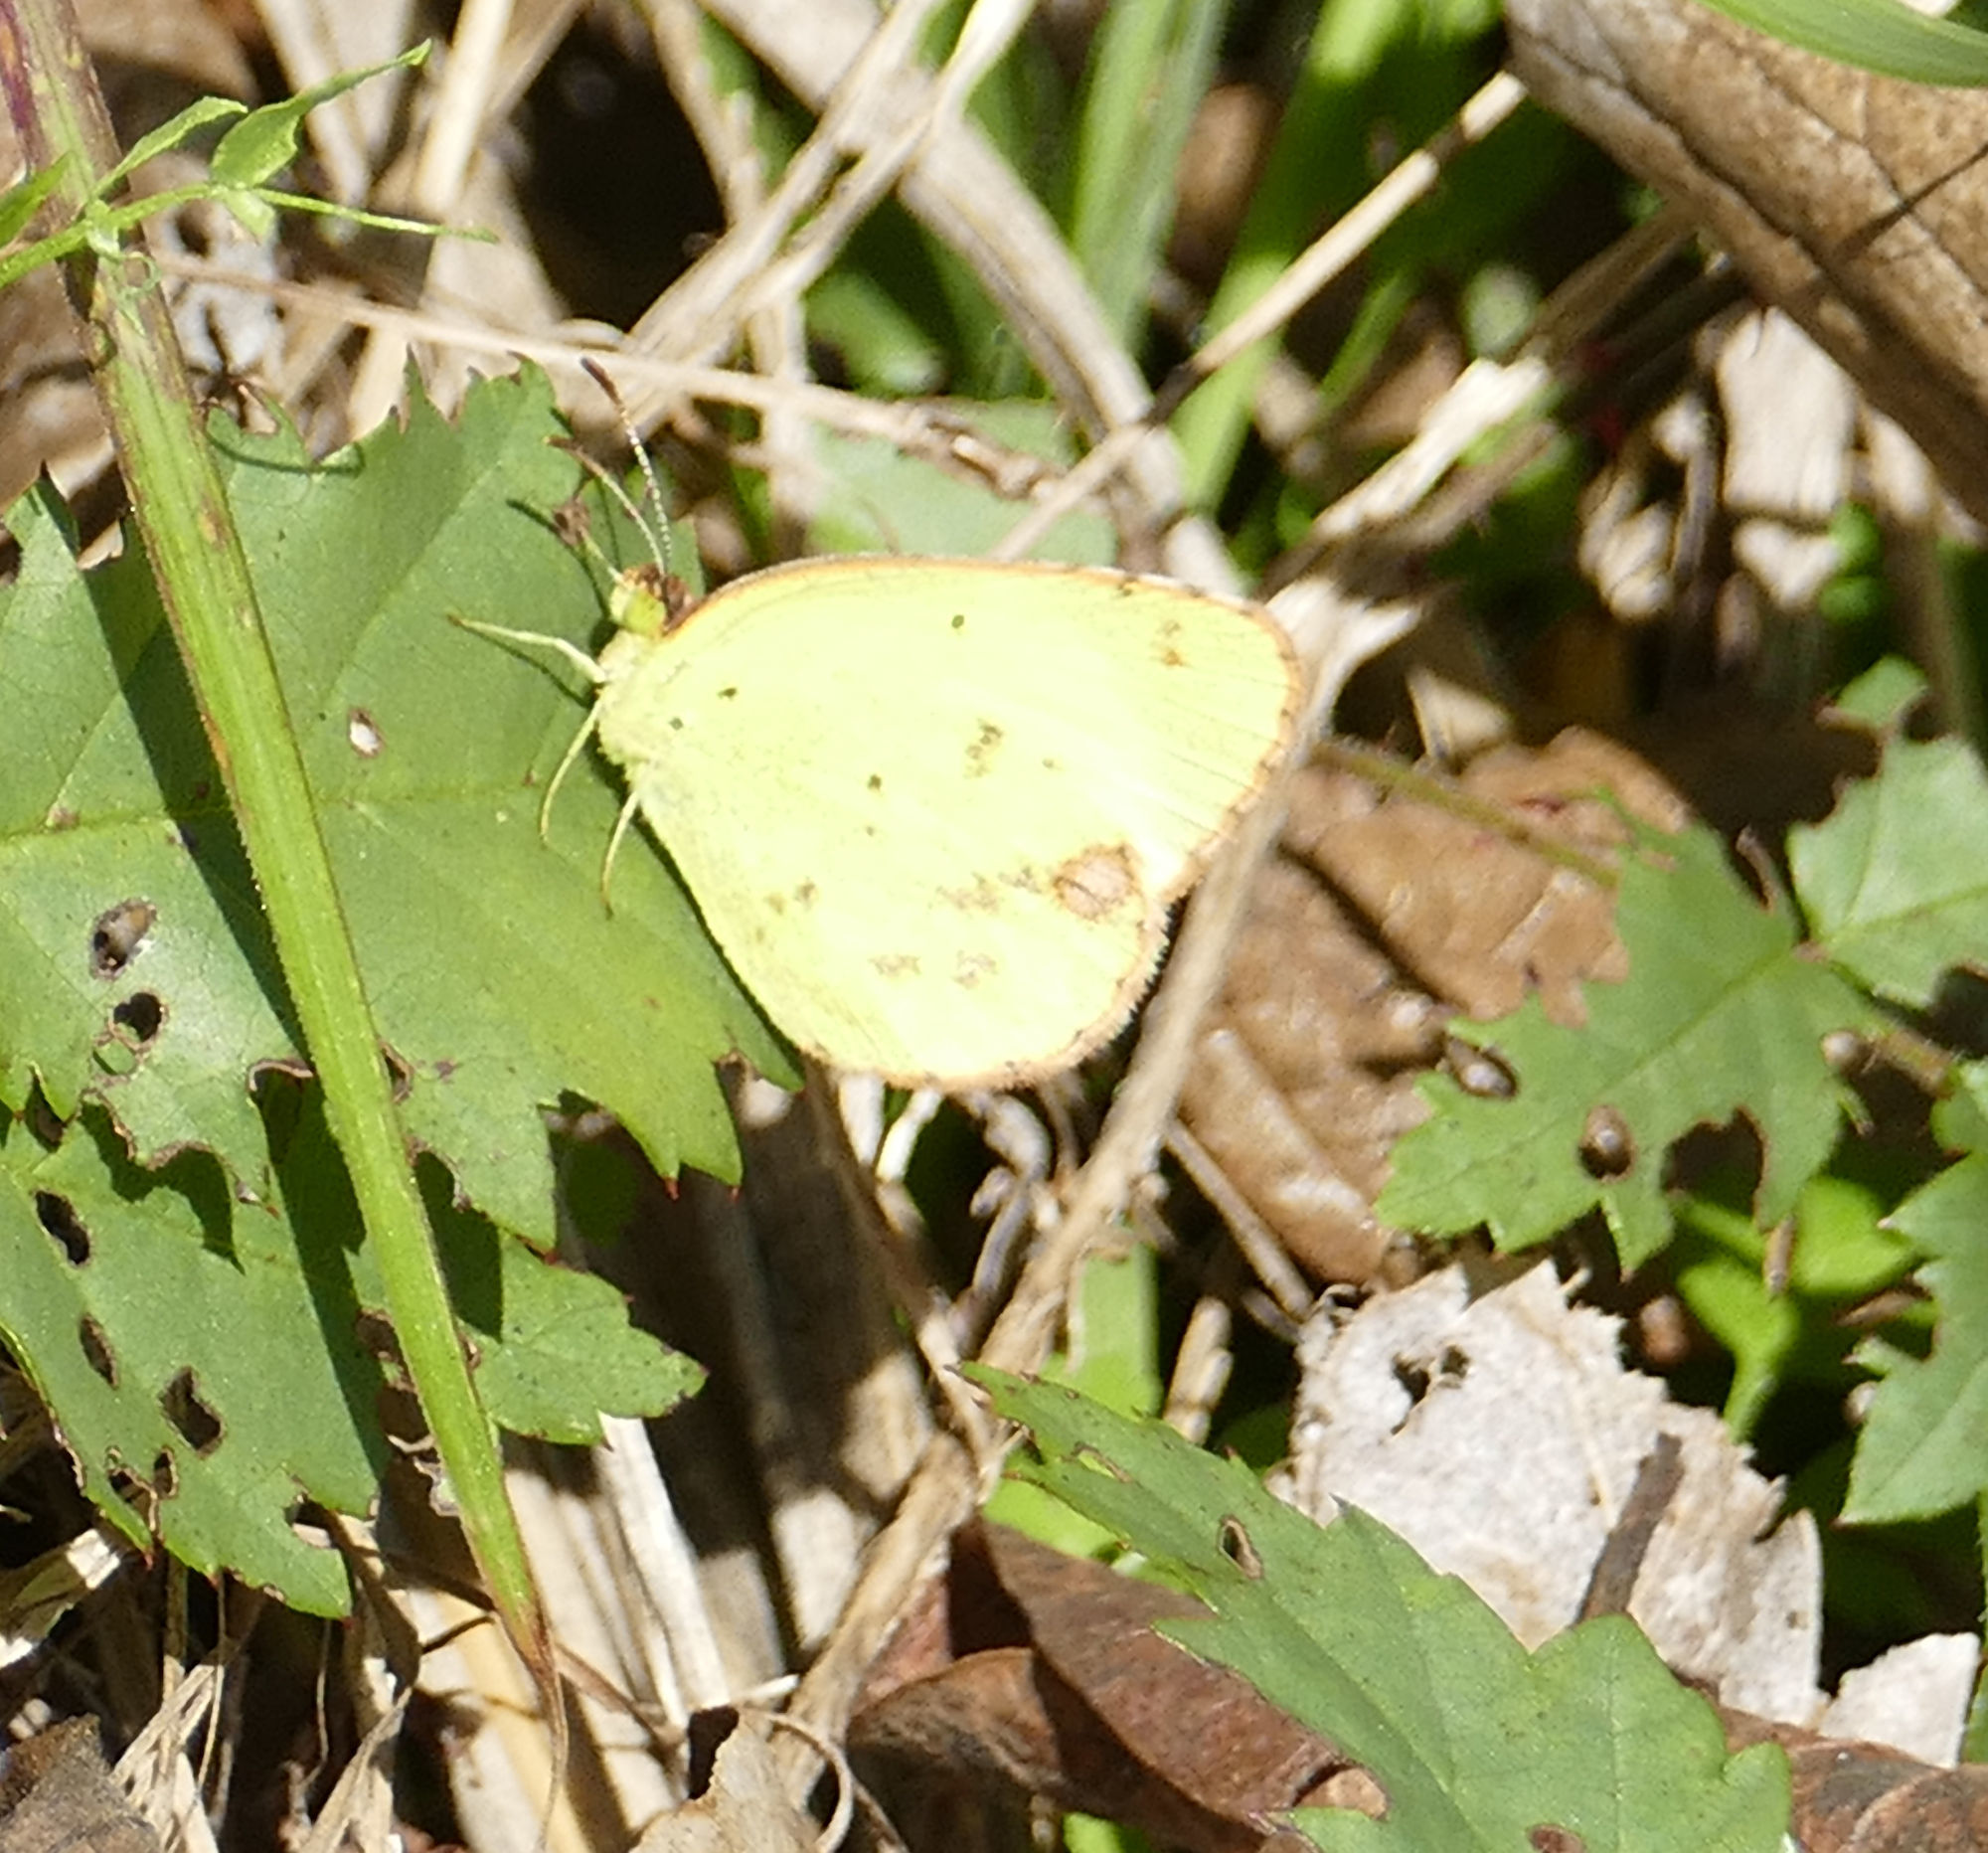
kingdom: Animalia
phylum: Arthropoda
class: Insecta
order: Lepidoptera
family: Pieridae
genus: Pyrisitia
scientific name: Pyrisitia lisa
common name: Little yellow
